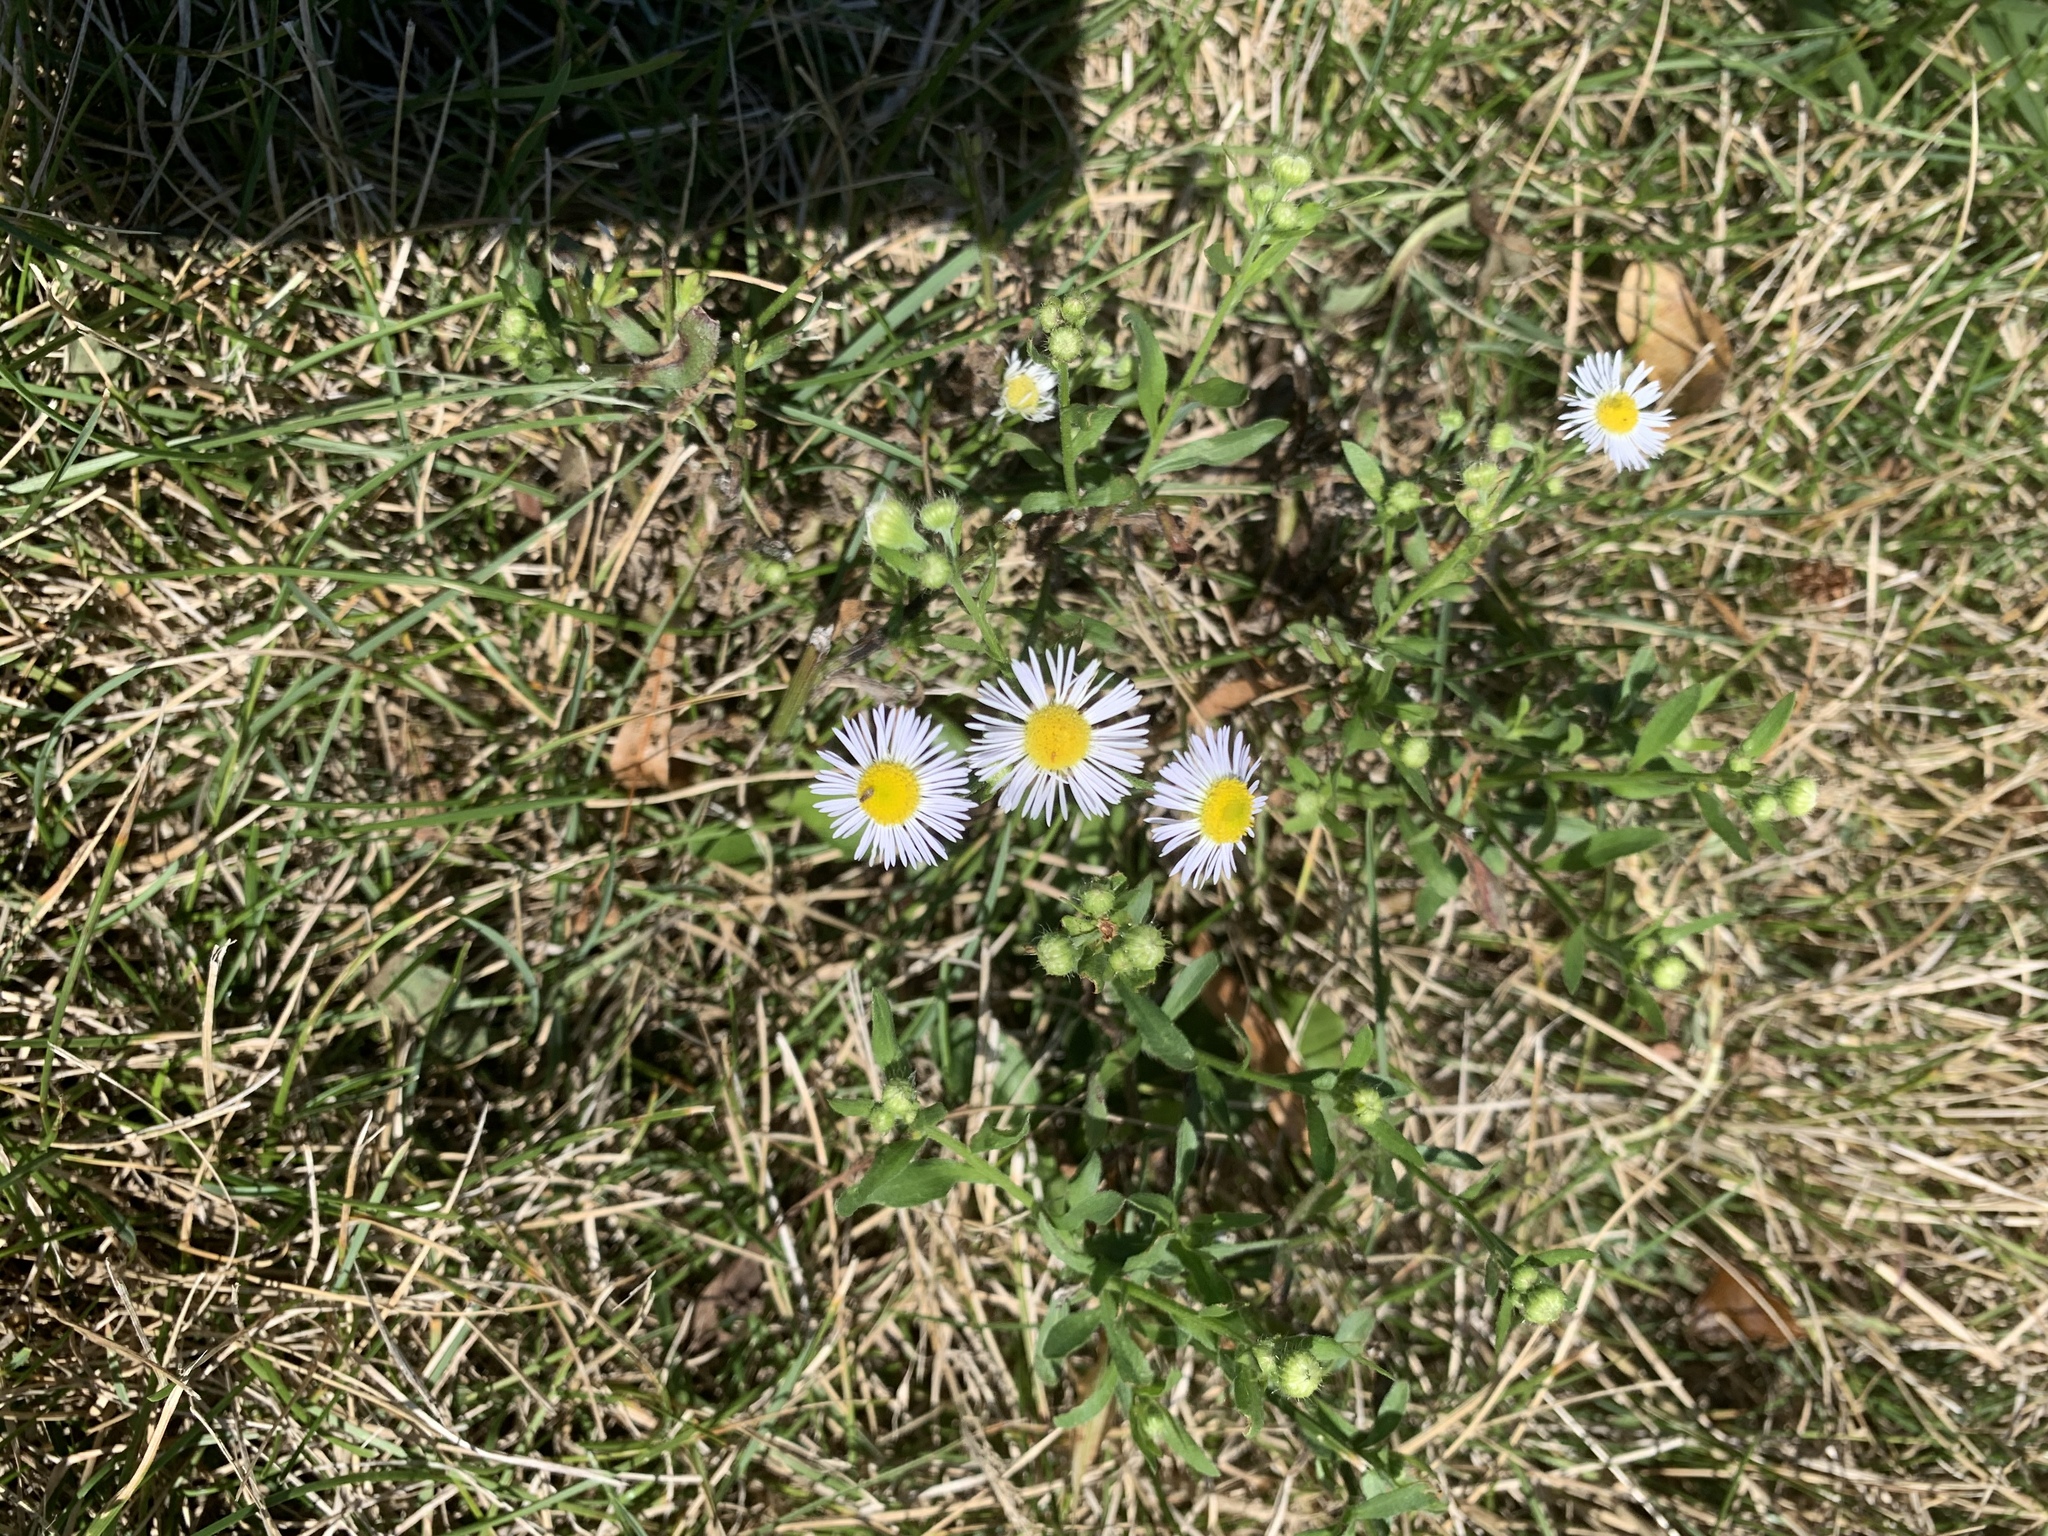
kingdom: Plantae
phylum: Tracheophyta
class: Magnoliopsida
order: Asterales
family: Asteraceae
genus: Erigeron
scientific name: Erigeron strigosus
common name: Common eastern fleabane
